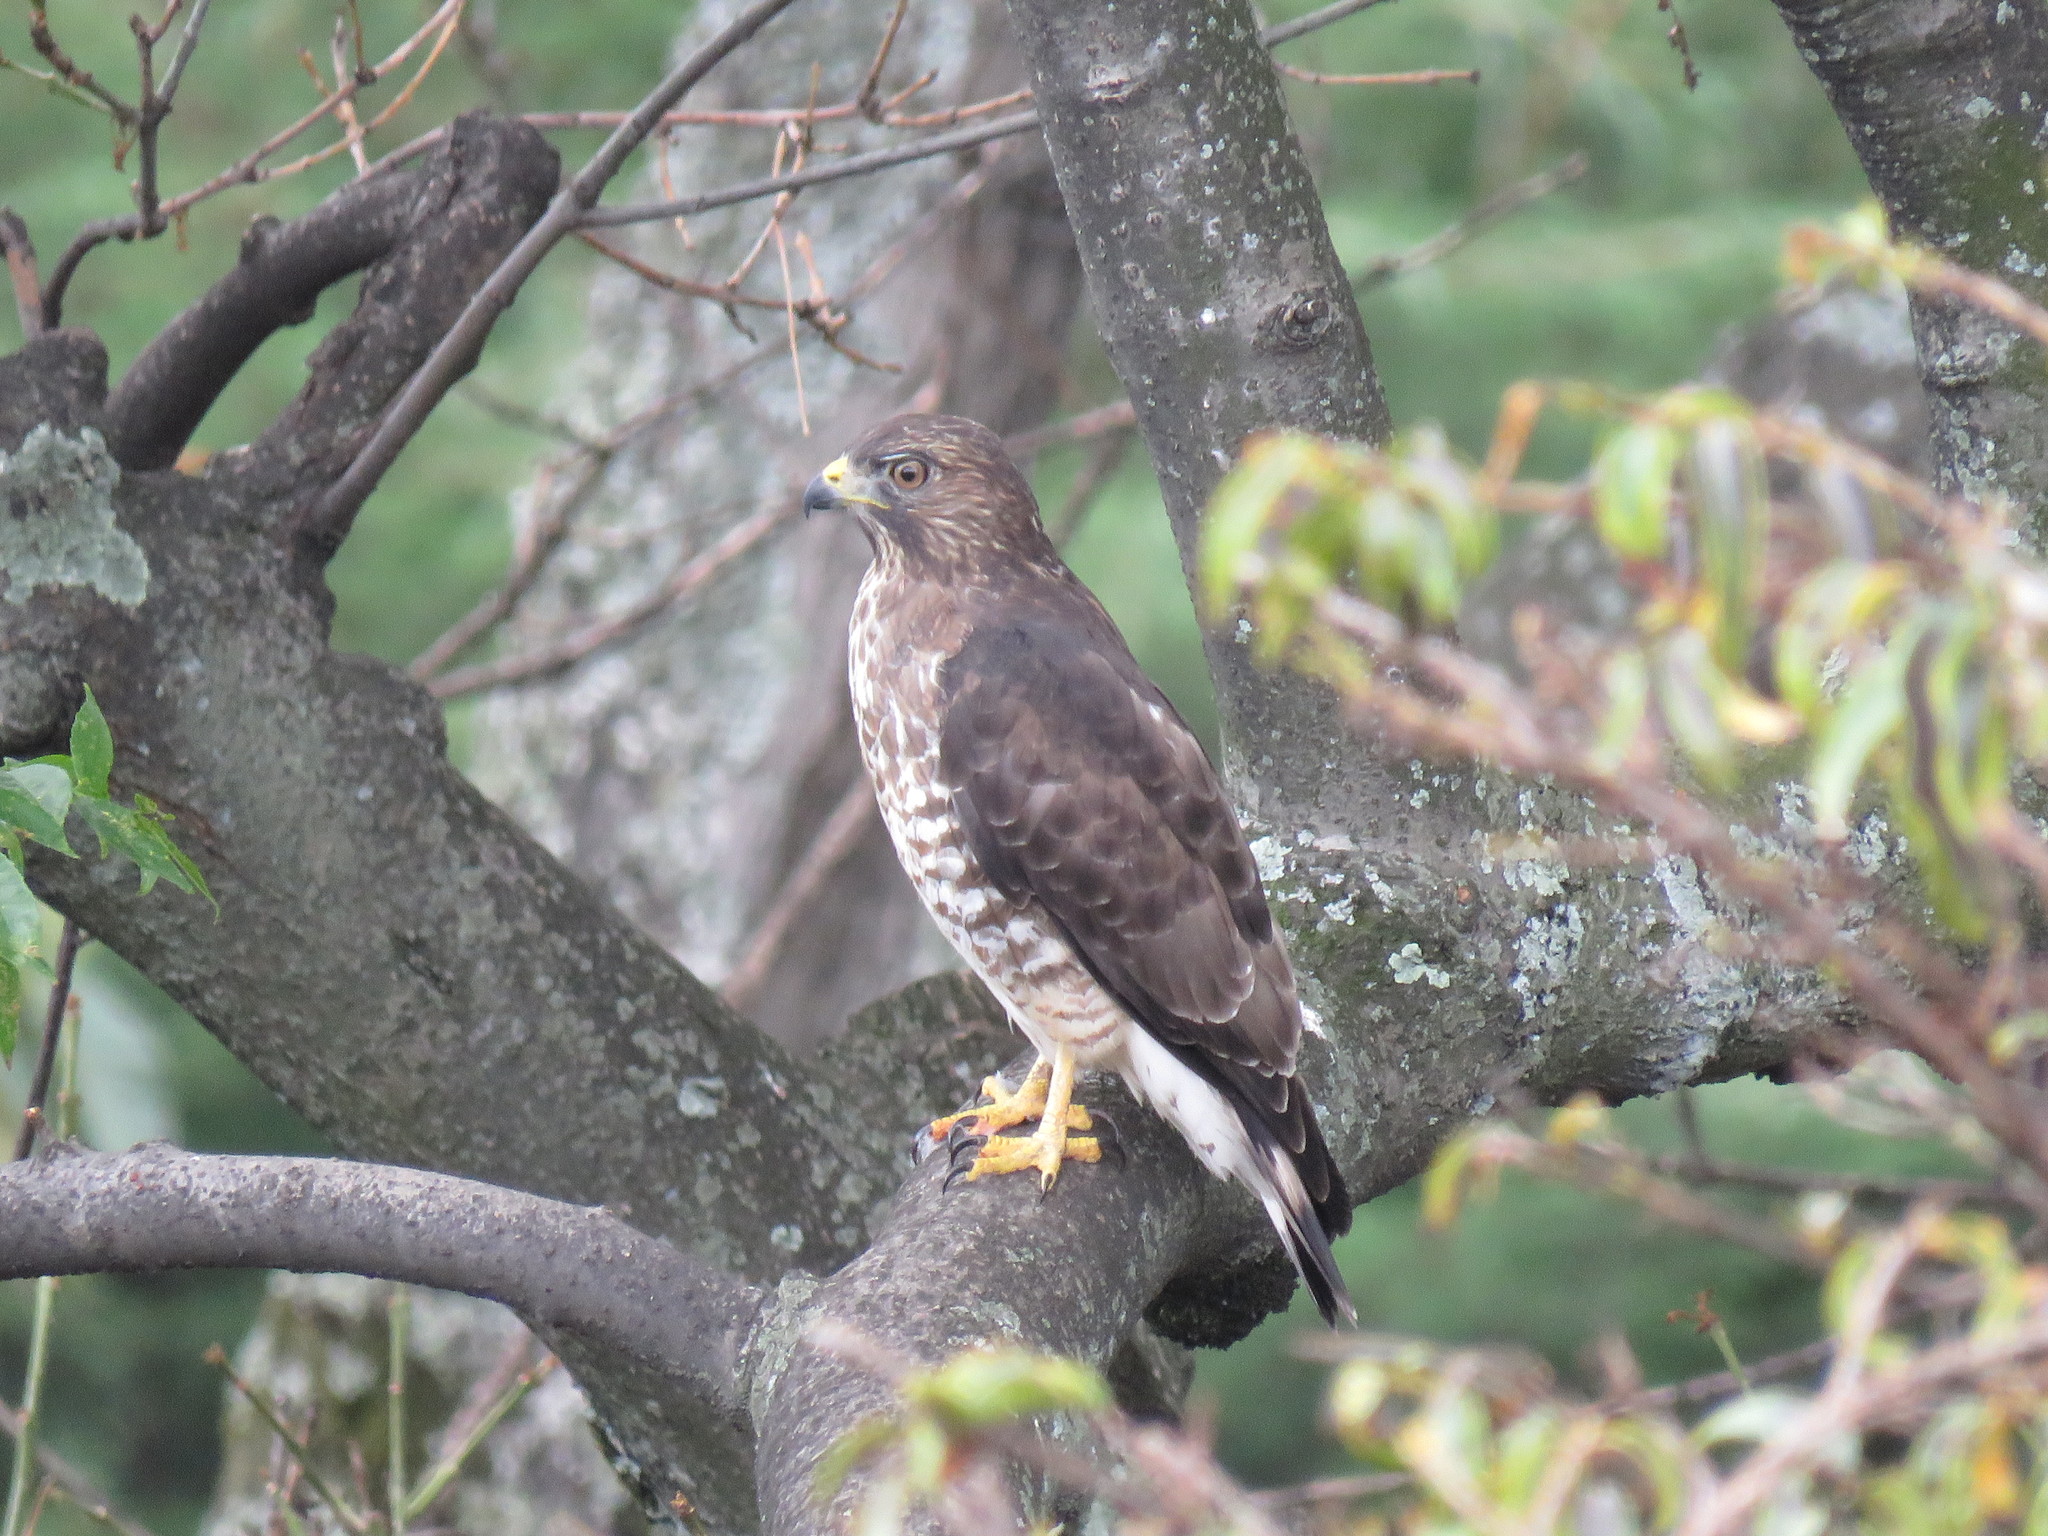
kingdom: Animalia
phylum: Chordata
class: Aves
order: Accipitriformes
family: Accipitridae
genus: Buteo
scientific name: Buteo platypterus
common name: Broad-winged hawk
